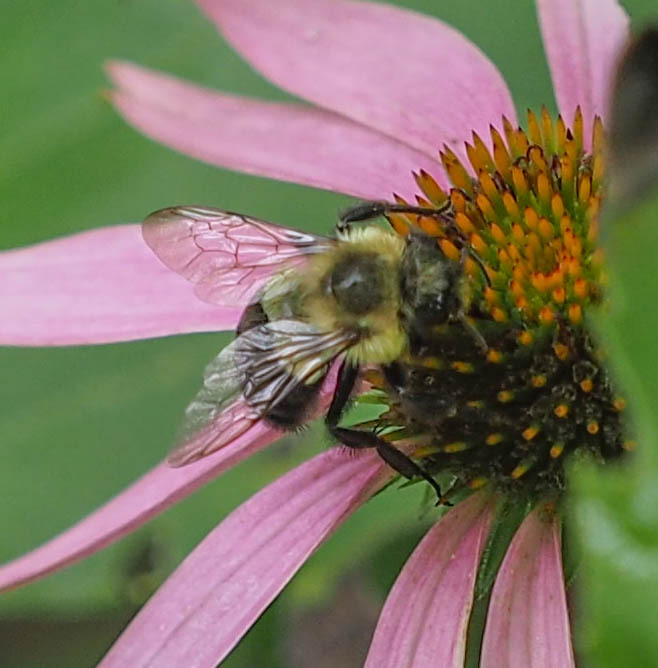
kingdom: Animalia
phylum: Arthropoda
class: Insecta
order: Hymenoptera
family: Apidae
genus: Bombus
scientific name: Bombus impatiens
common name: Common eastern bumble bee
